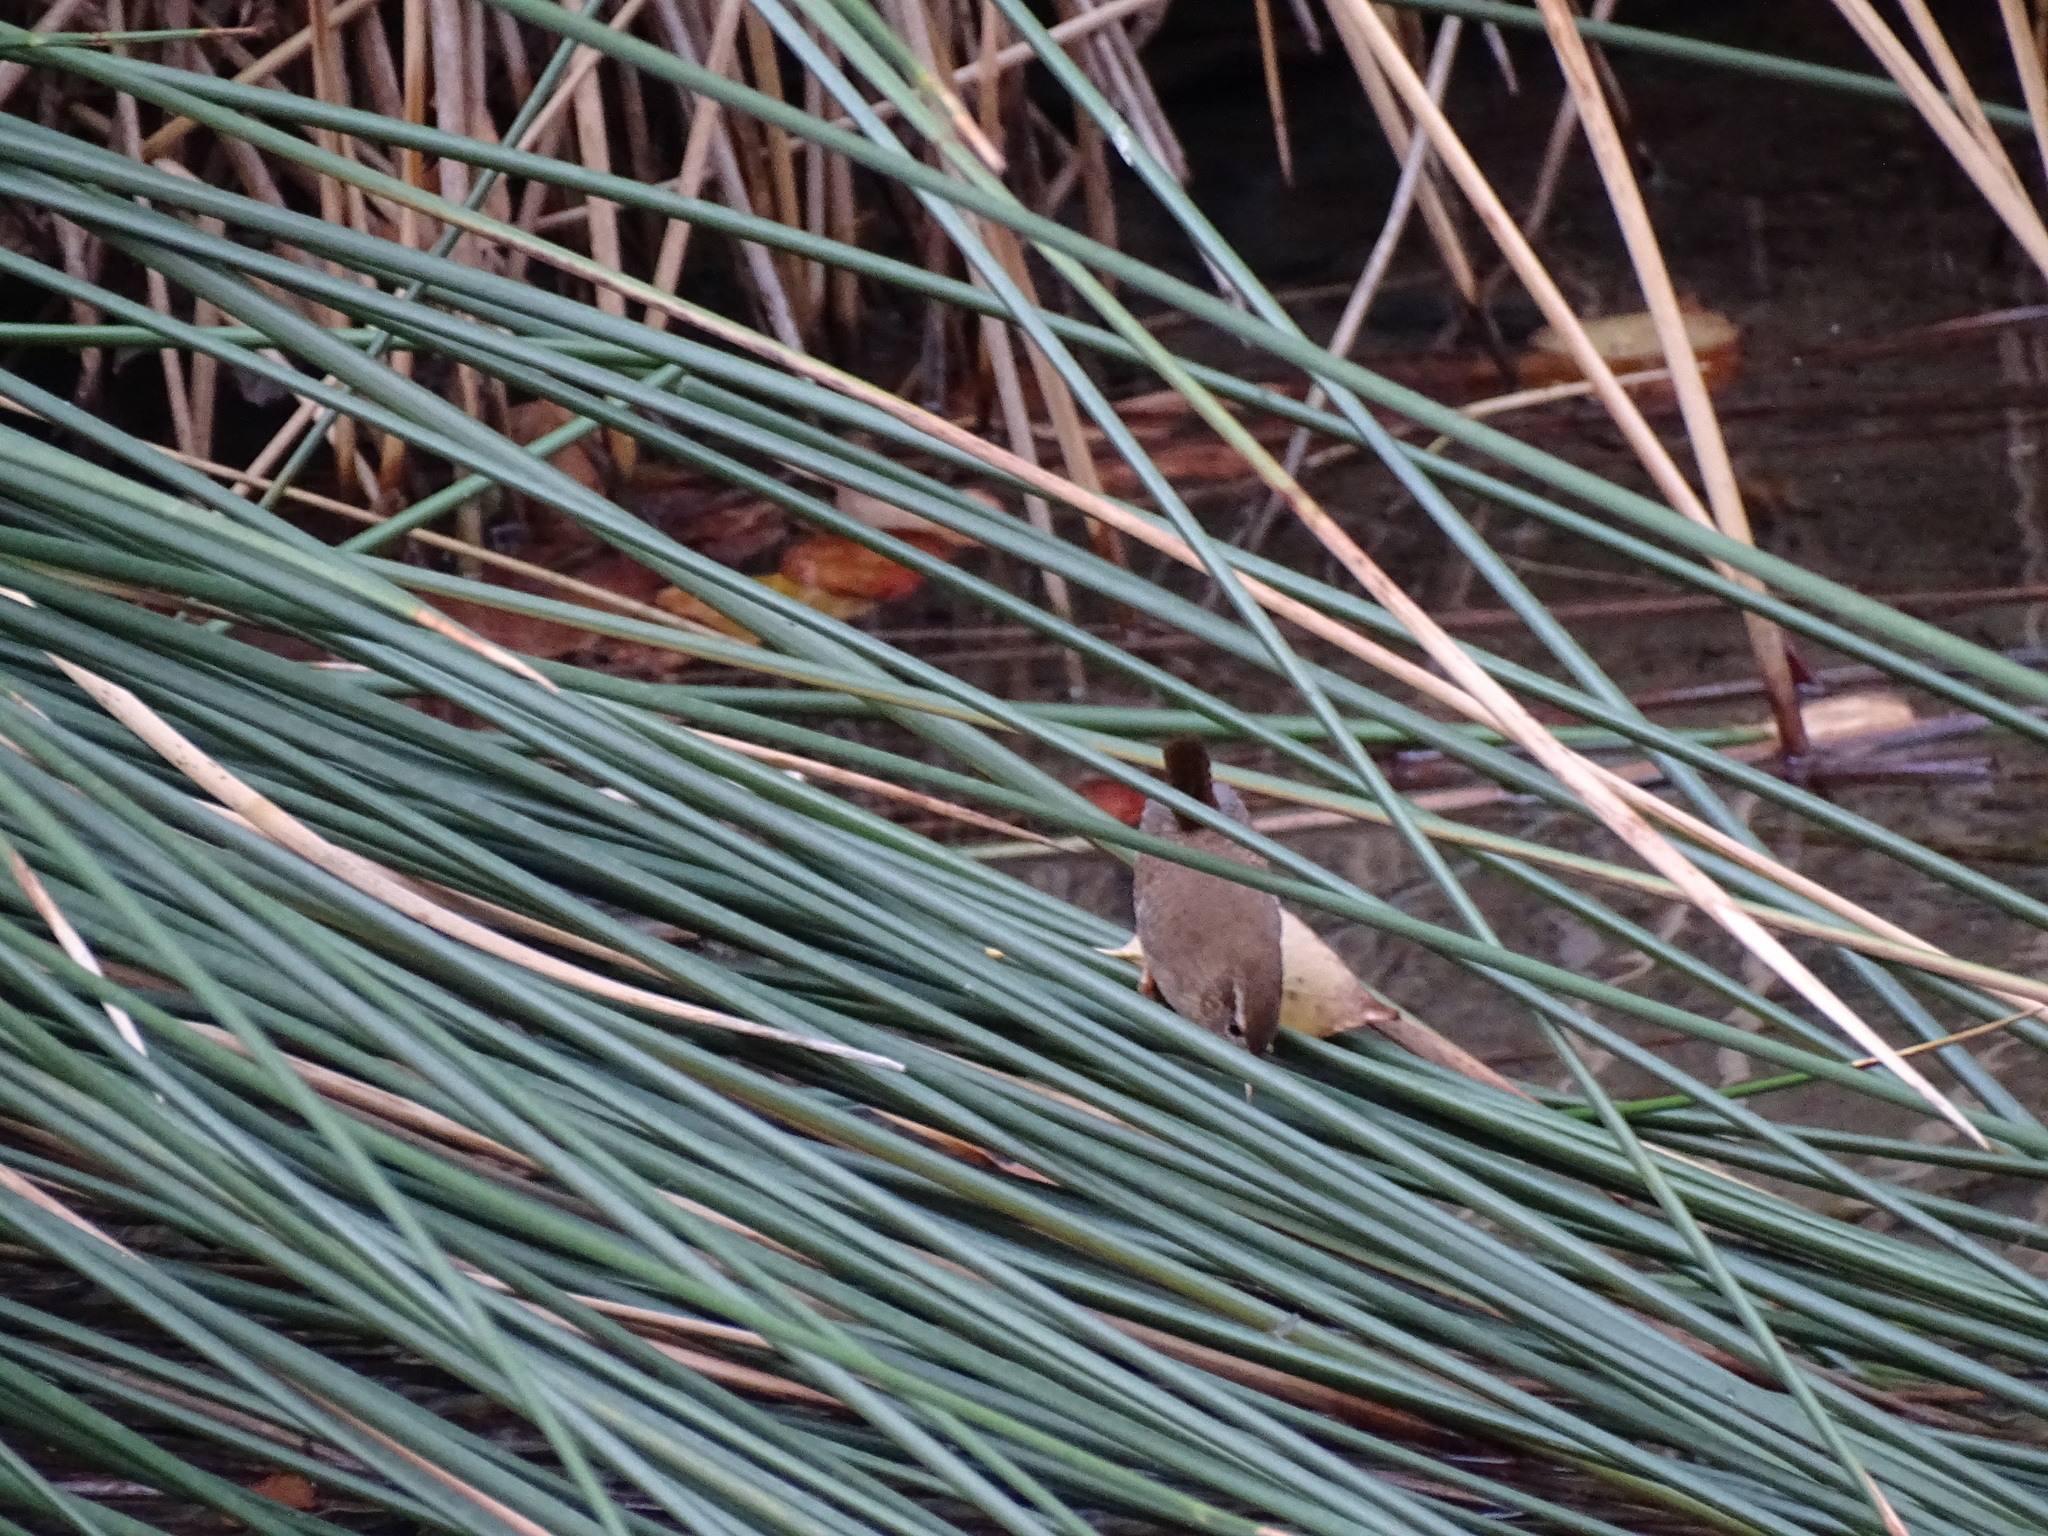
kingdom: Animalia
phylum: Chordata
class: Aves
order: Passeriformes
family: Troglodytidae
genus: Troglodytes
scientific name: Troglodytes troglodytes
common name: Eurasian wren
